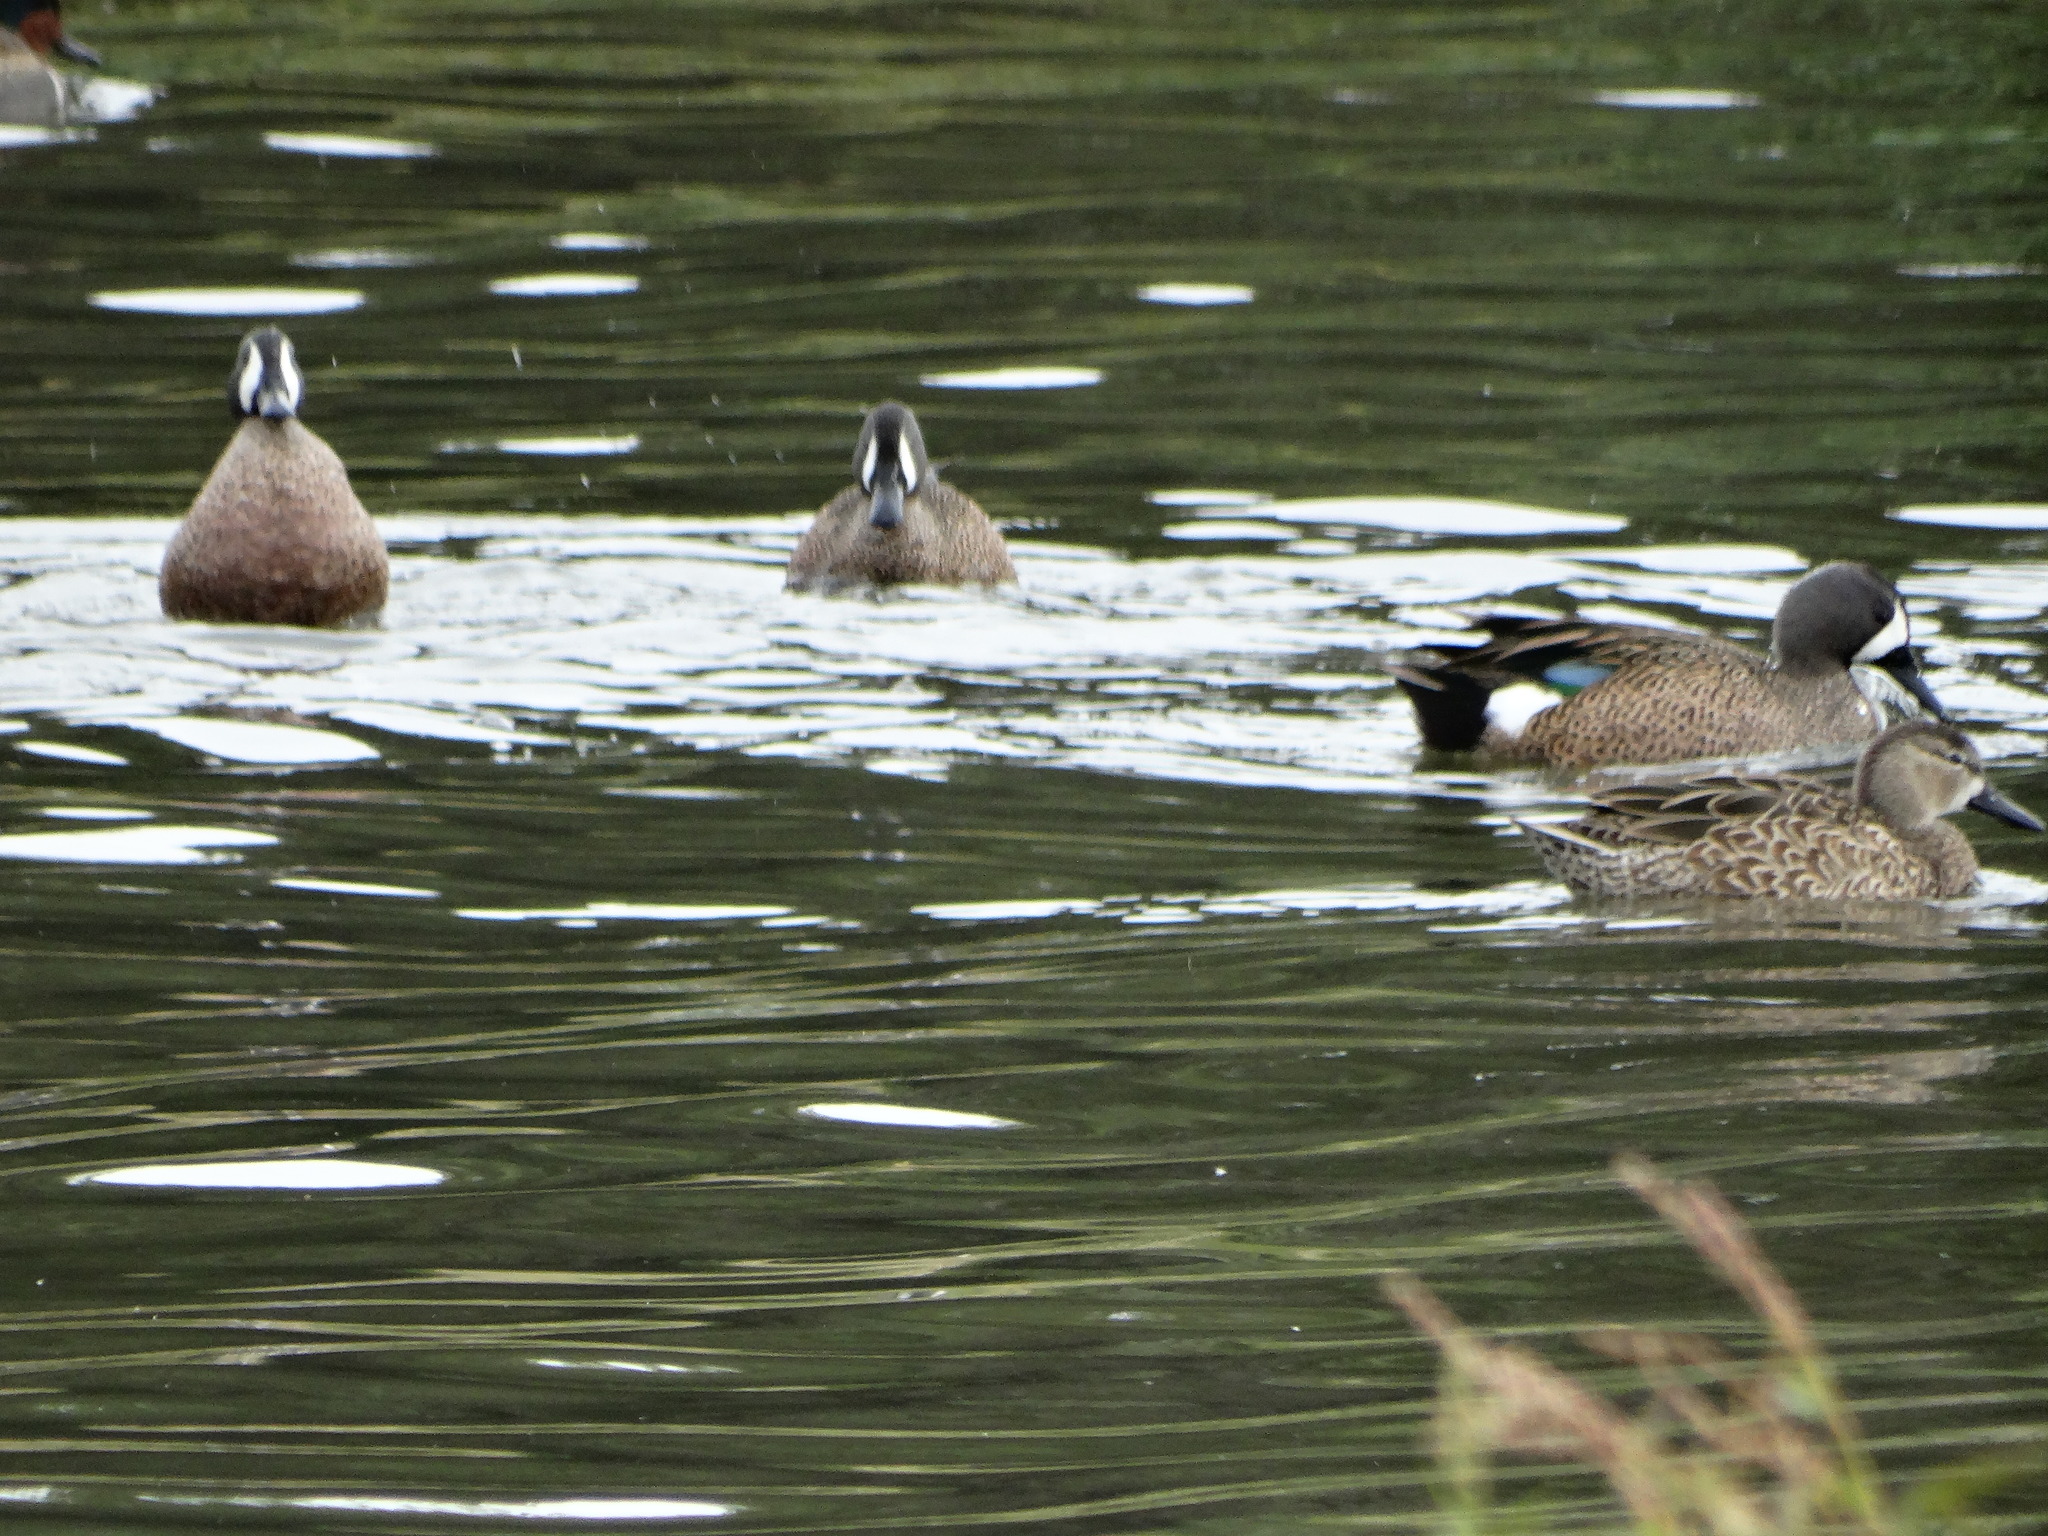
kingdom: Animalia
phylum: Chordata
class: Aves
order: Anseriformes
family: Anatidae
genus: Spatula
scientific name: Spatula discors
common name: Blue-winged teal
